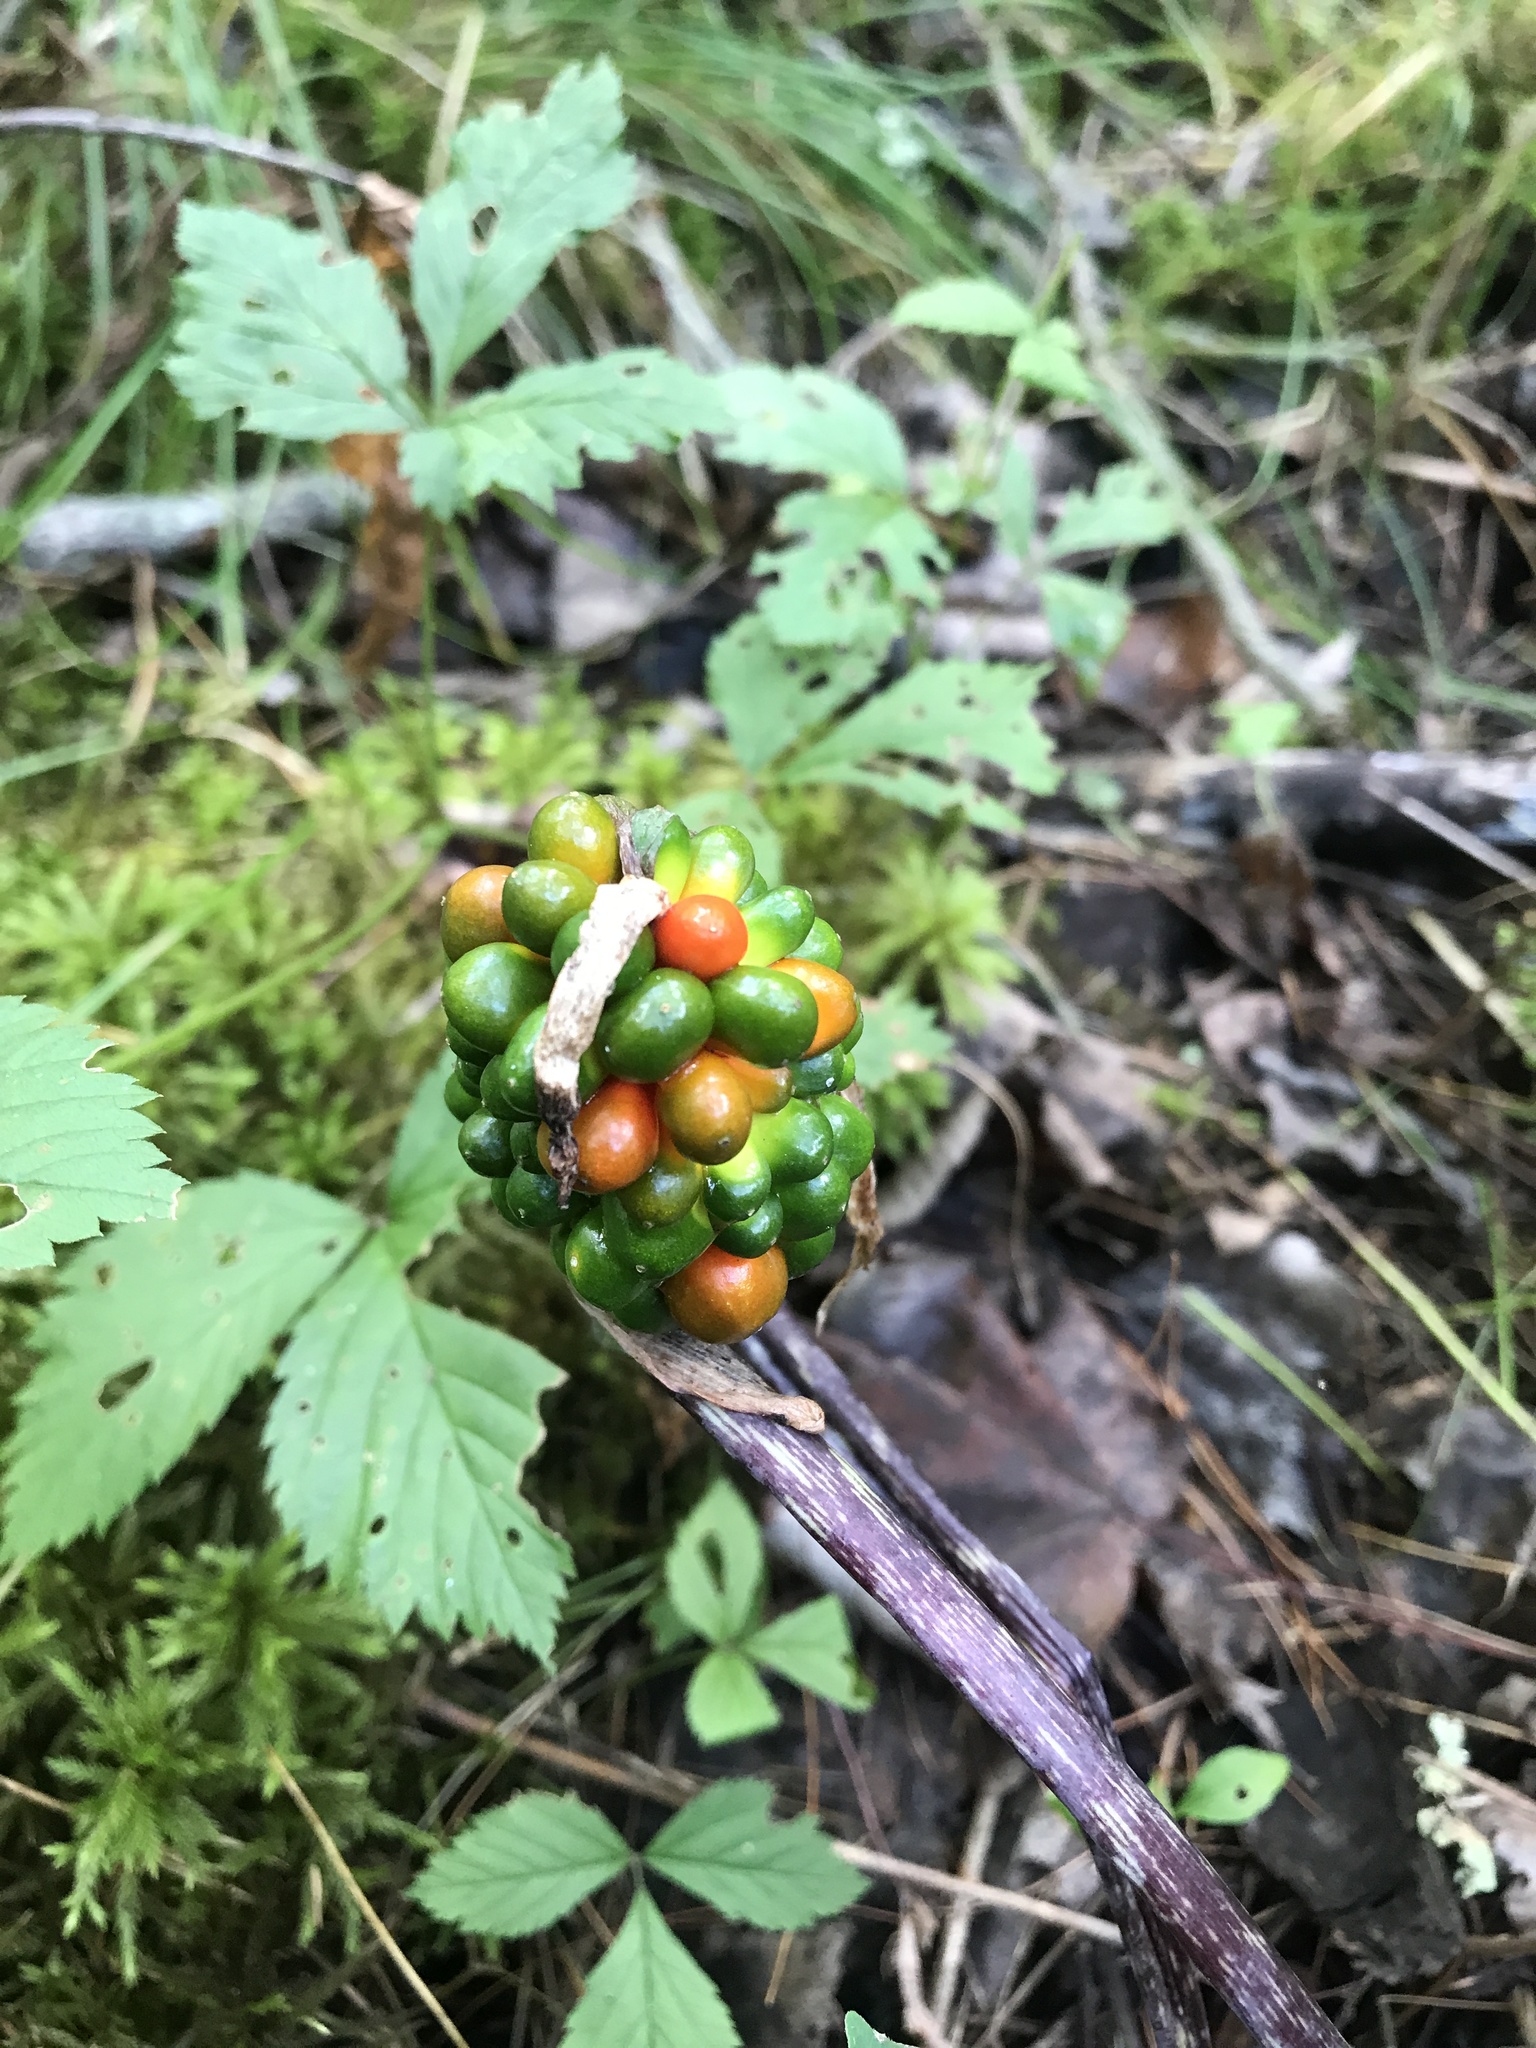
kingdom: Plantae
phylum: Tracheophyta
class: Liliopsida
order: Alismatales
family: Araceae
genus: Arisaema
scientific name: Arisaema triphyllum
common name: Jack-in-the-pulpit
